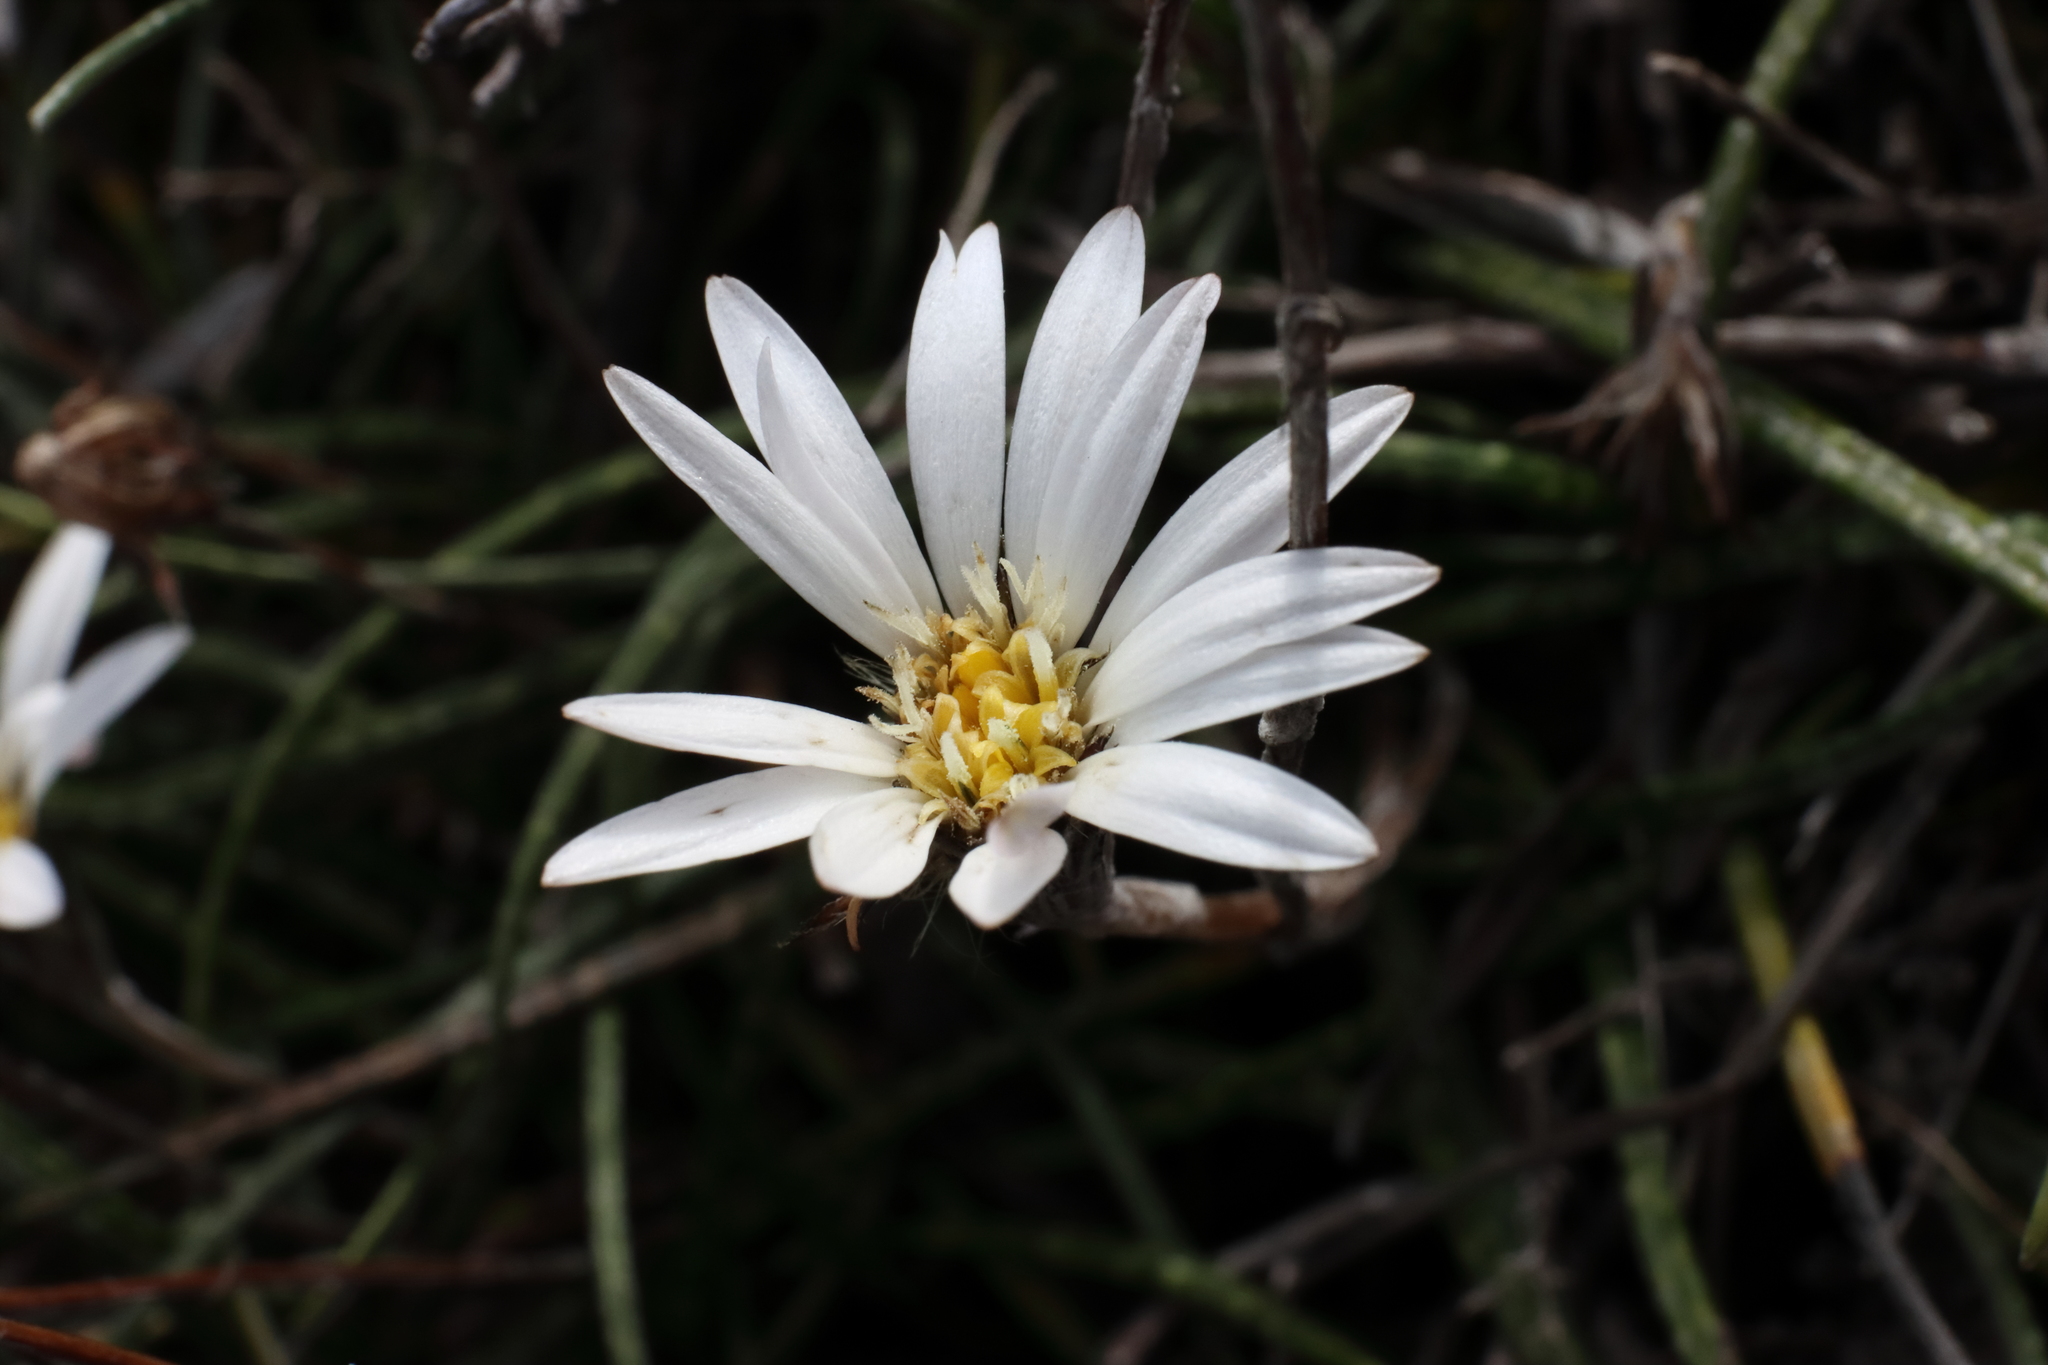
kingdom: Plantae
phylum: Tracheophyta
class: Magnoliopsida
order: Asterales
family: Asteraceae
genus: Celmisia
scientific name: Celmisia gracilenta
